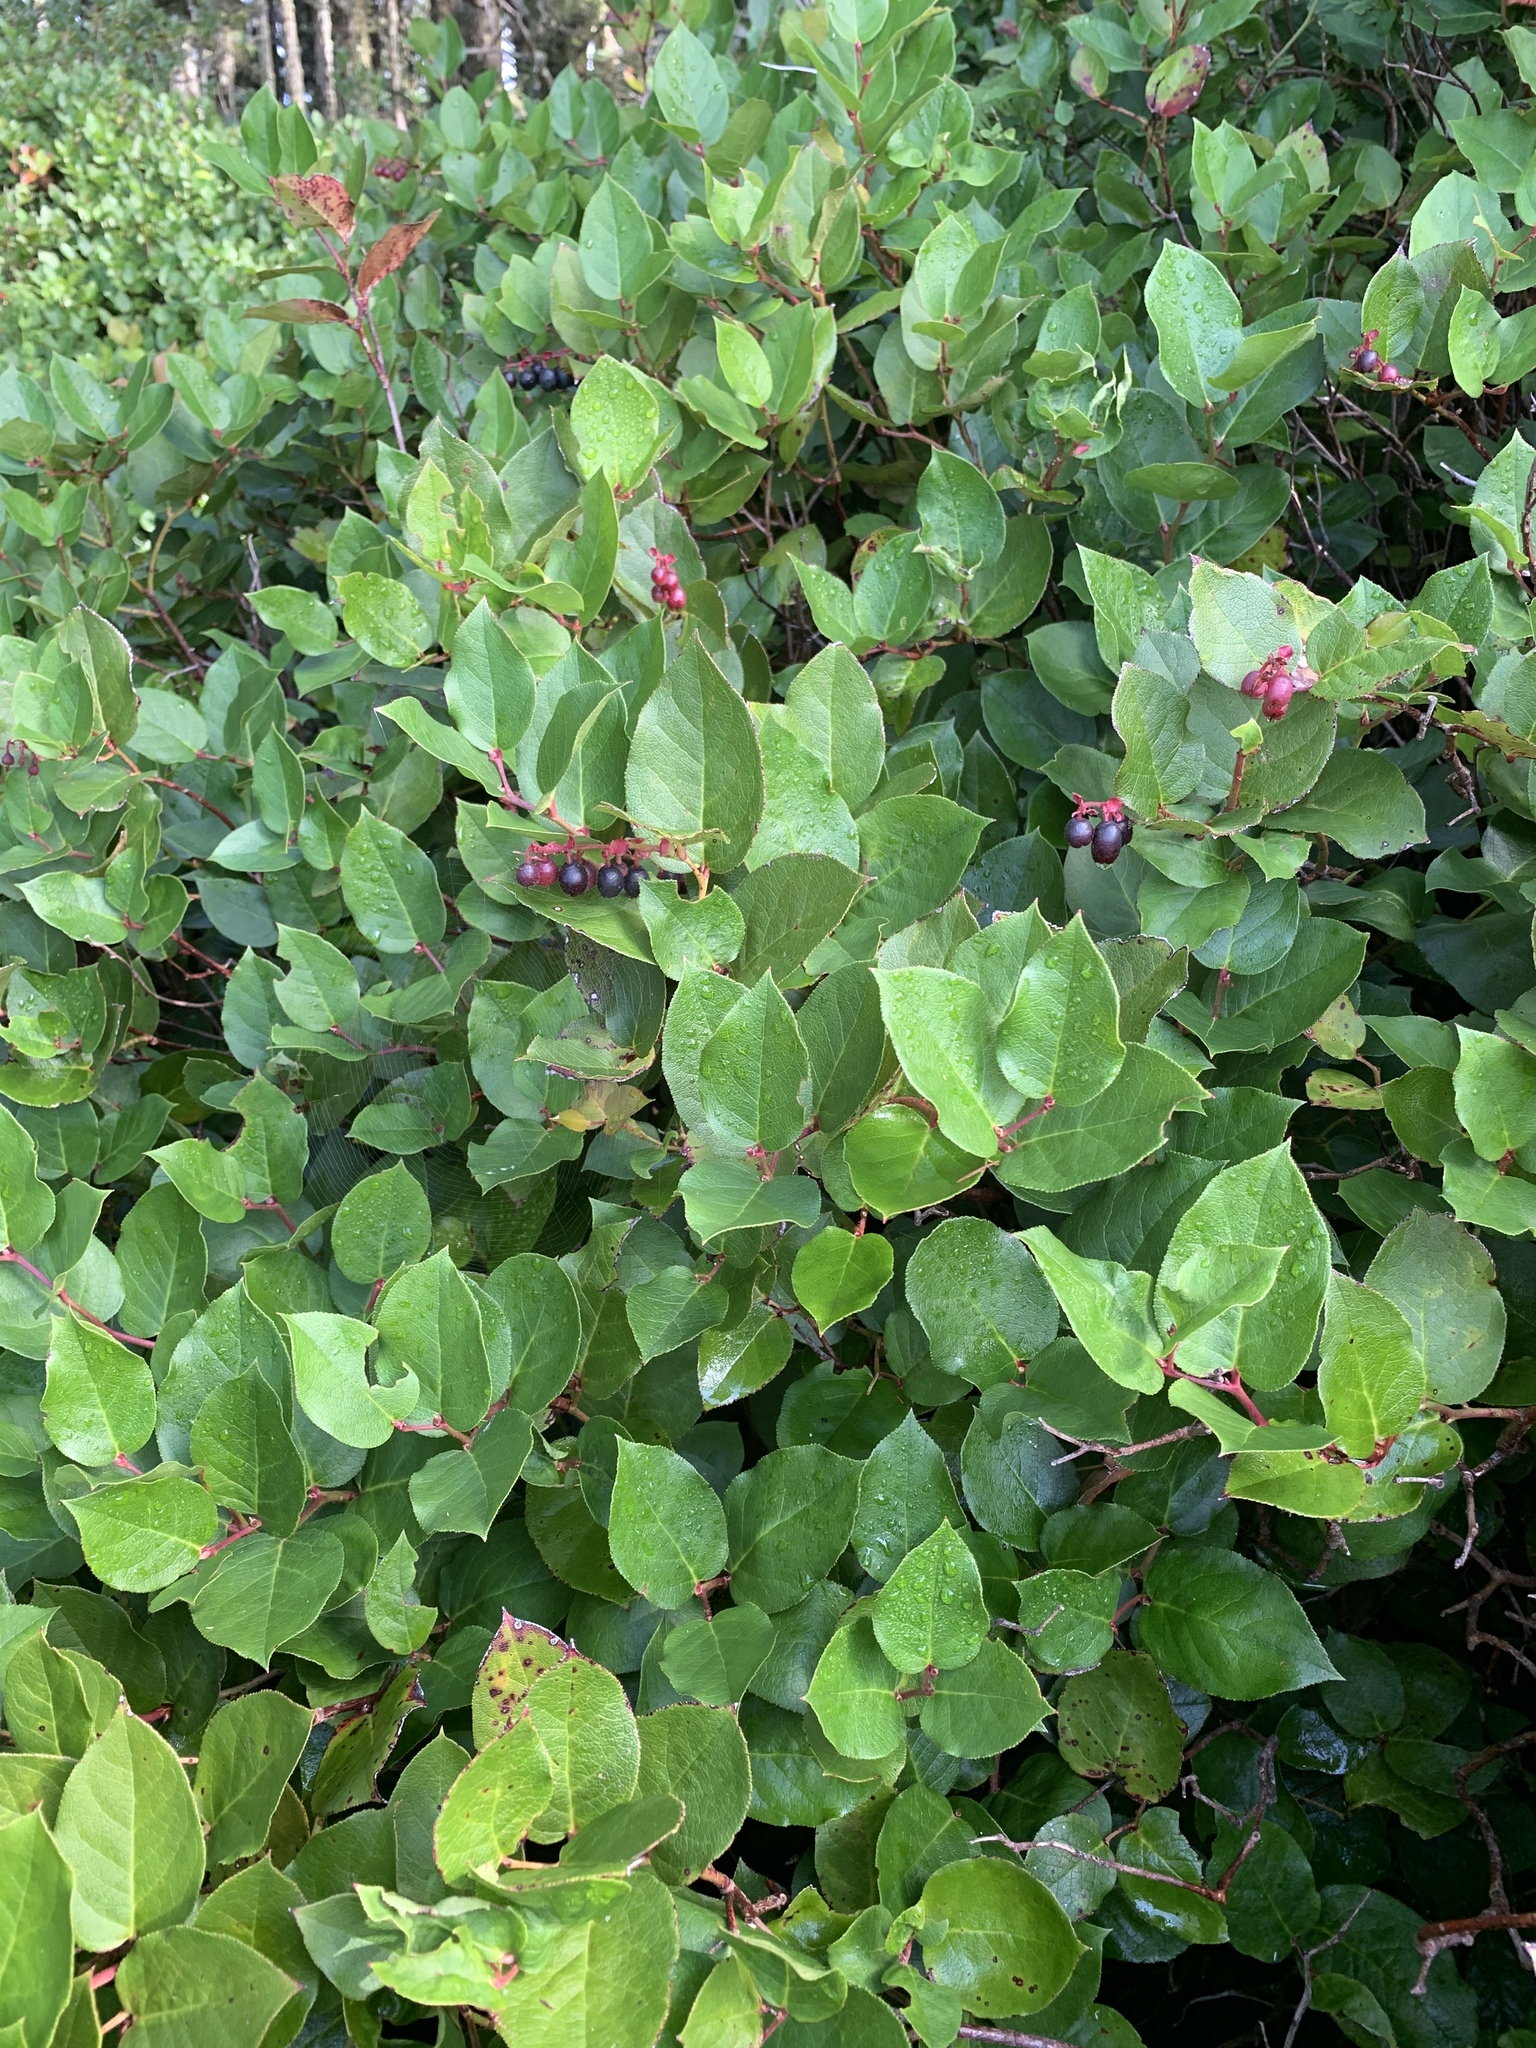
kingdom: Plantae
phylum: Tracheophyta
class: Magnoliopsida
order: Ericales
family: Ericaceae
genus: Gaultheria
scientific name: Gaultheria shallon
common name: Shallon
